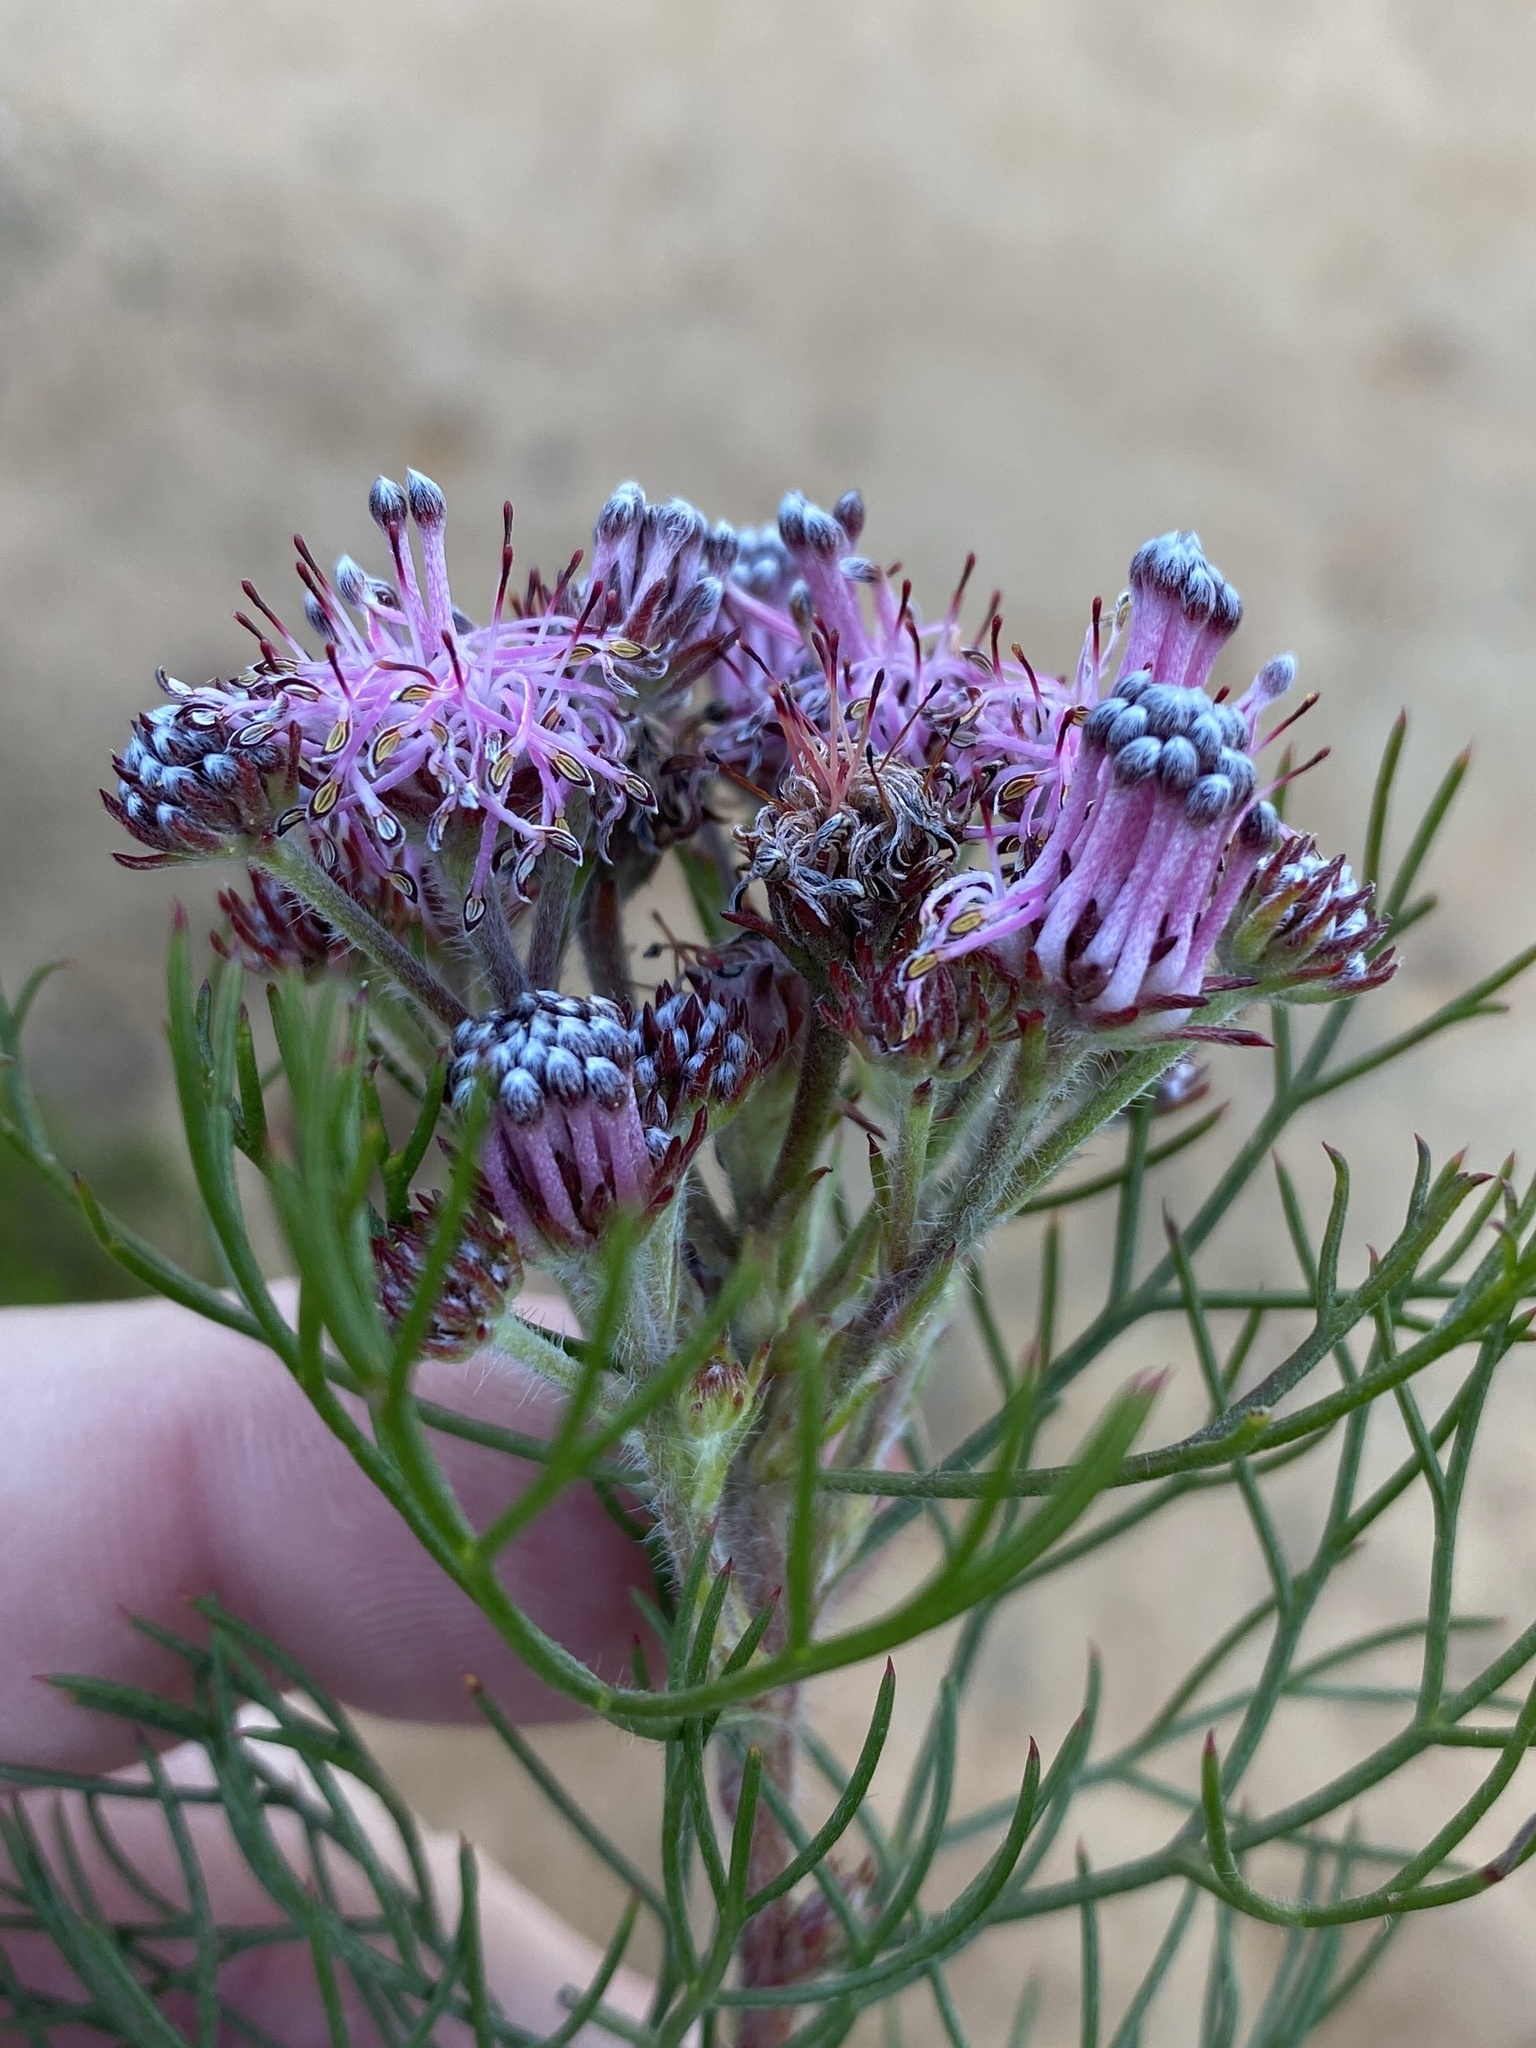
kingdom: Plantae
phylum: Tracheophyta
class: Magnoliopsida
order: Proteales
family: Proteaceae
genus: Serruria
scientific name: Serruria fasciflora
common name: Common pin spiderhead
